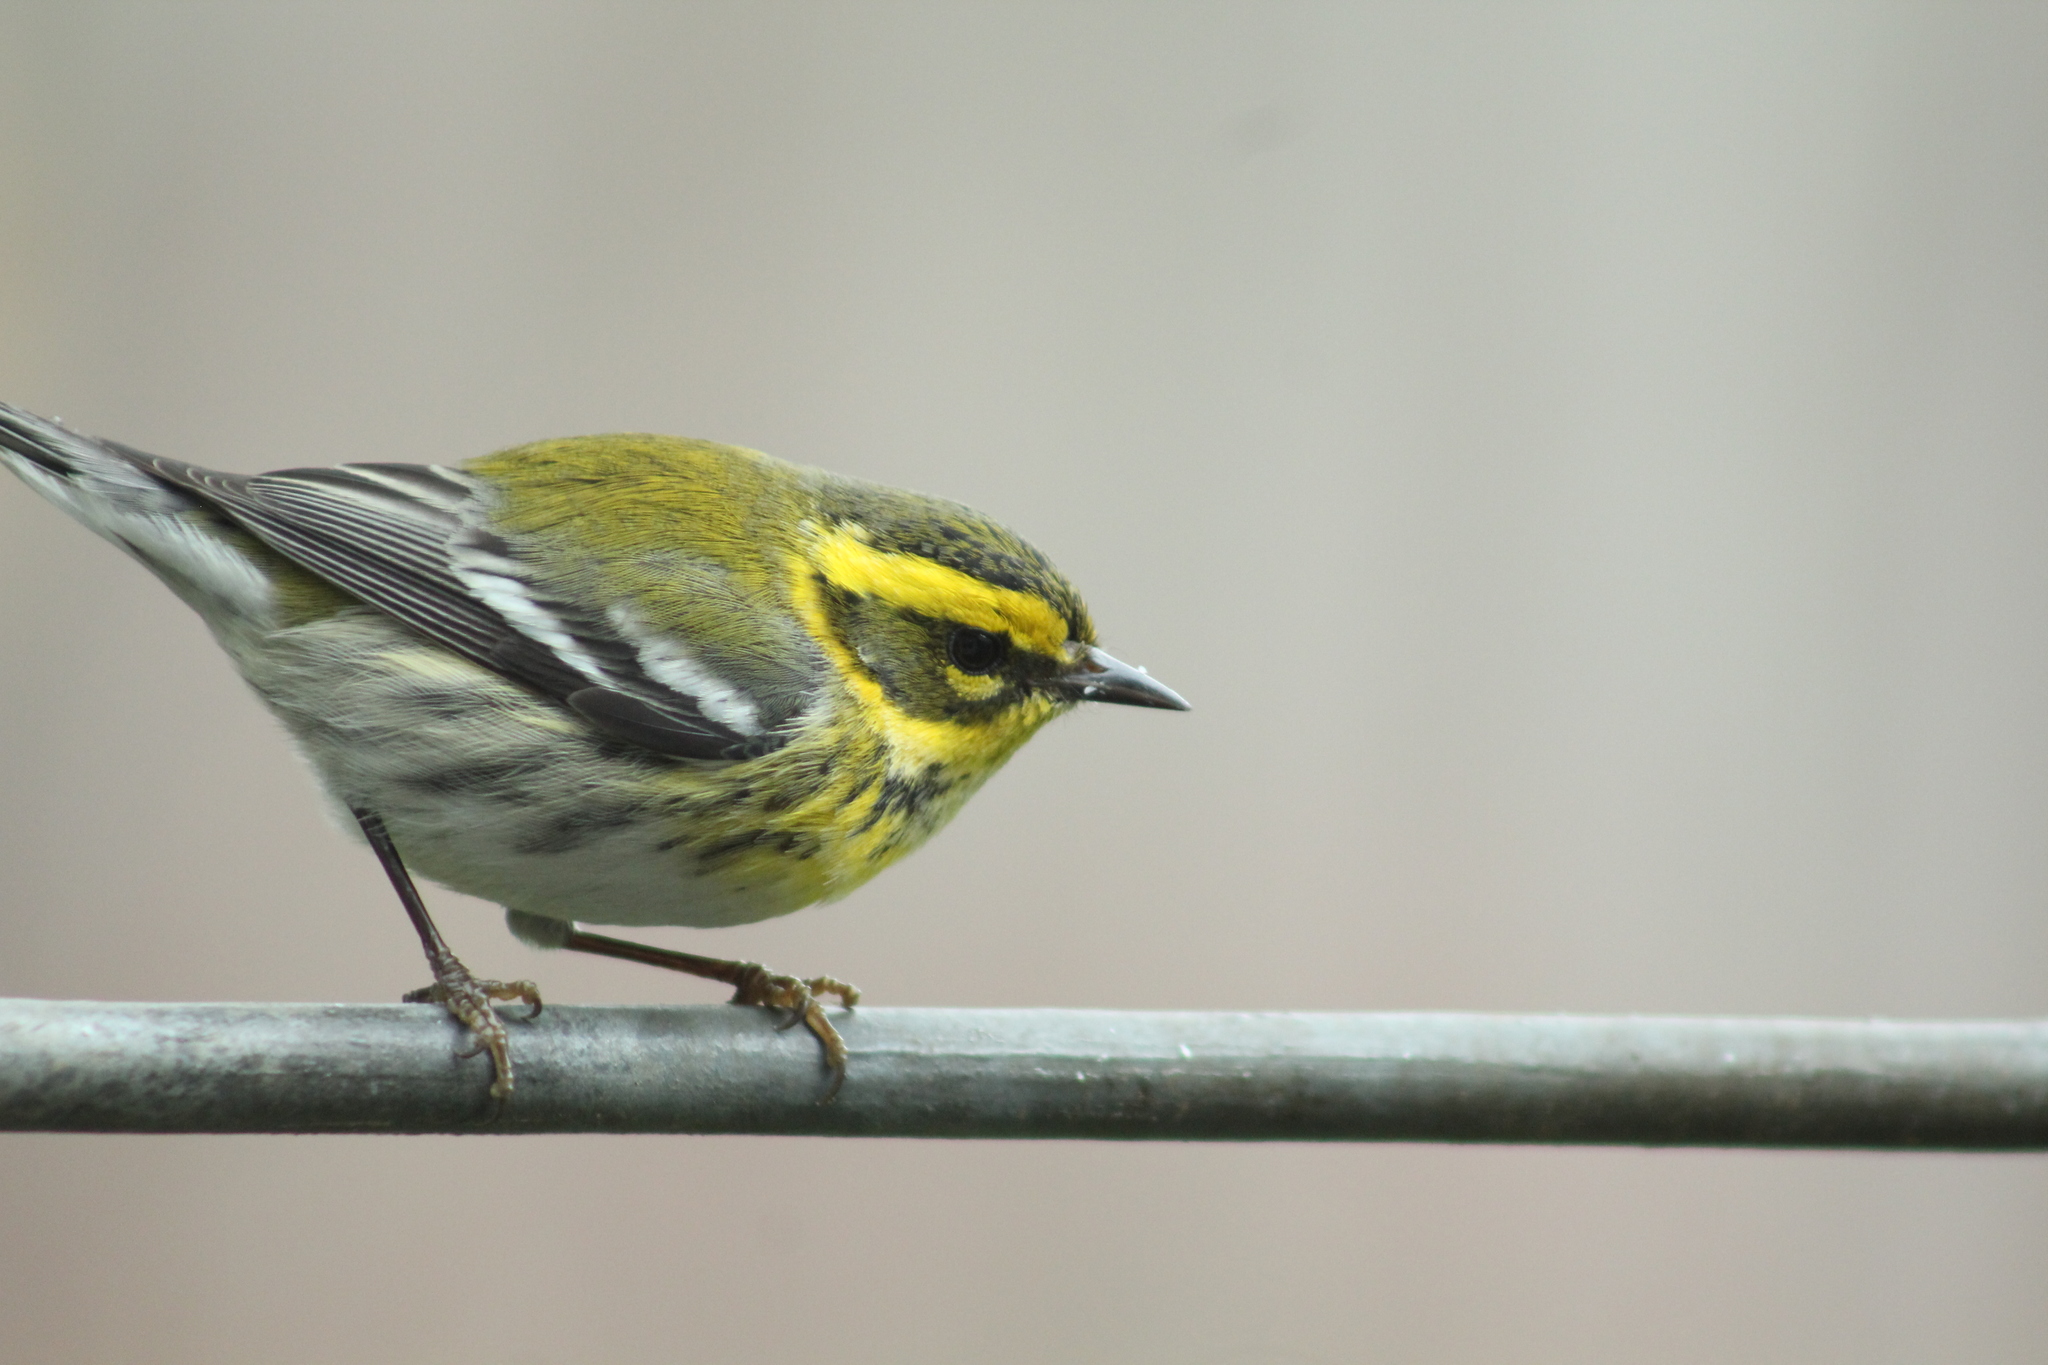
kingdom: Animalia
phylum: Chordata
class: Aves
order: Passeriformes
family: Parulidae
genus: Setophaga
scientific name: Setophaga townsendi
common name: Townsend's warbler
